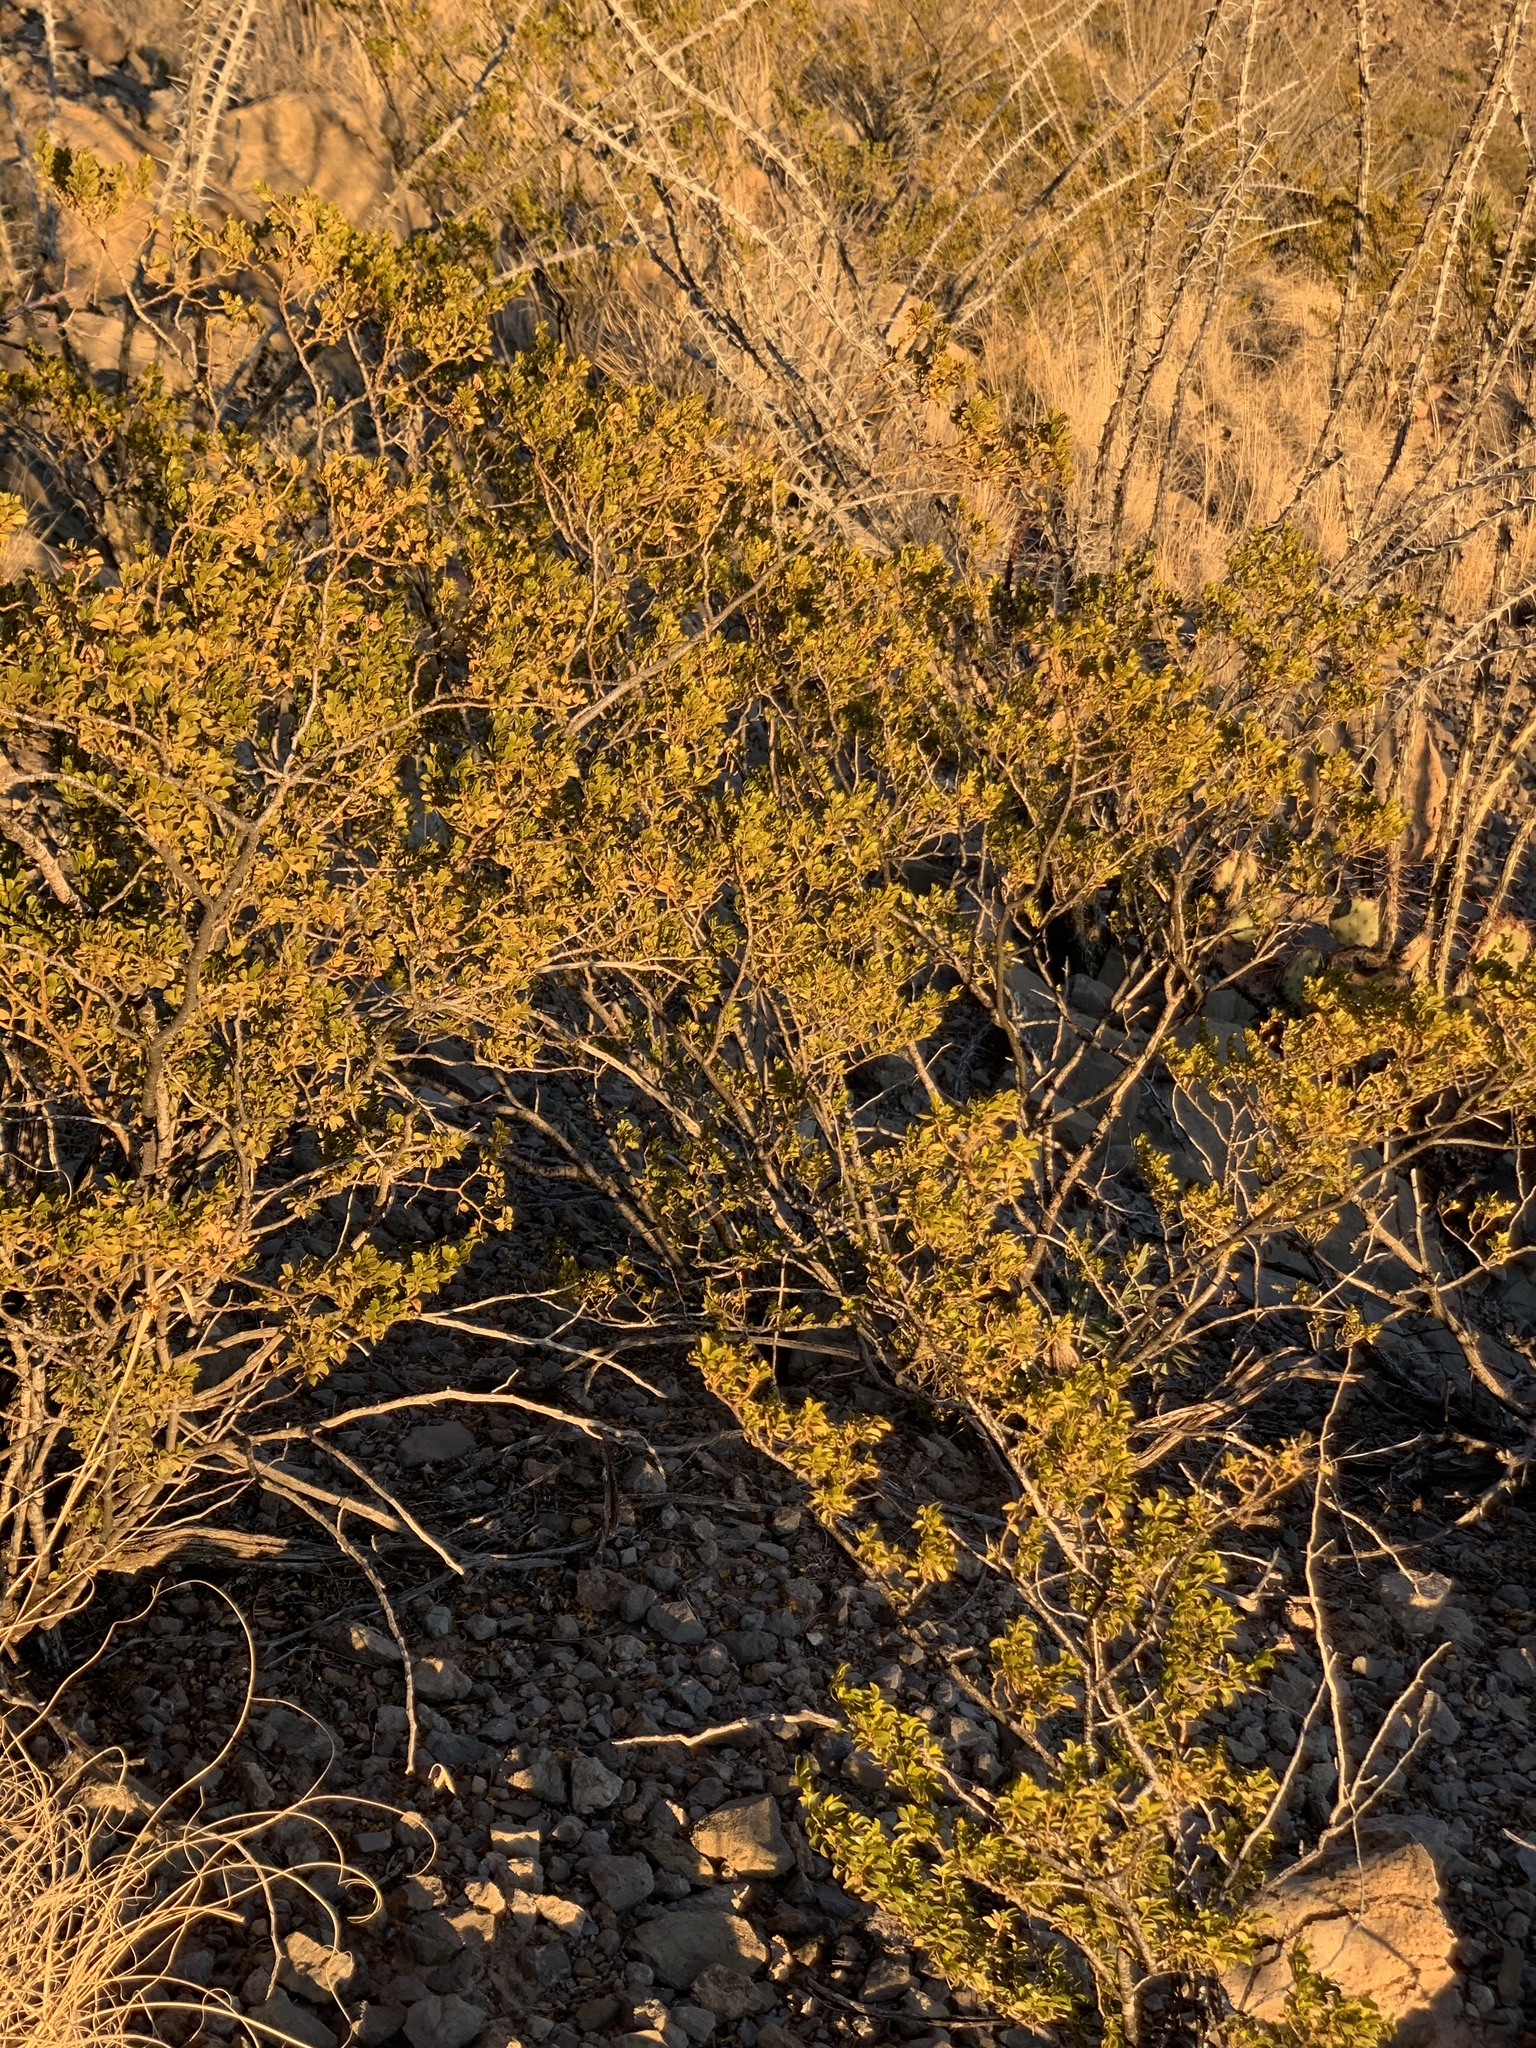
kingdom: Plantae
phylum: Tracheophyta
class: Magnoliopsida
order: Zygophyllales
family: Zygophyllaceae
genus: Larrea
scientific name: Larrea tridentata
